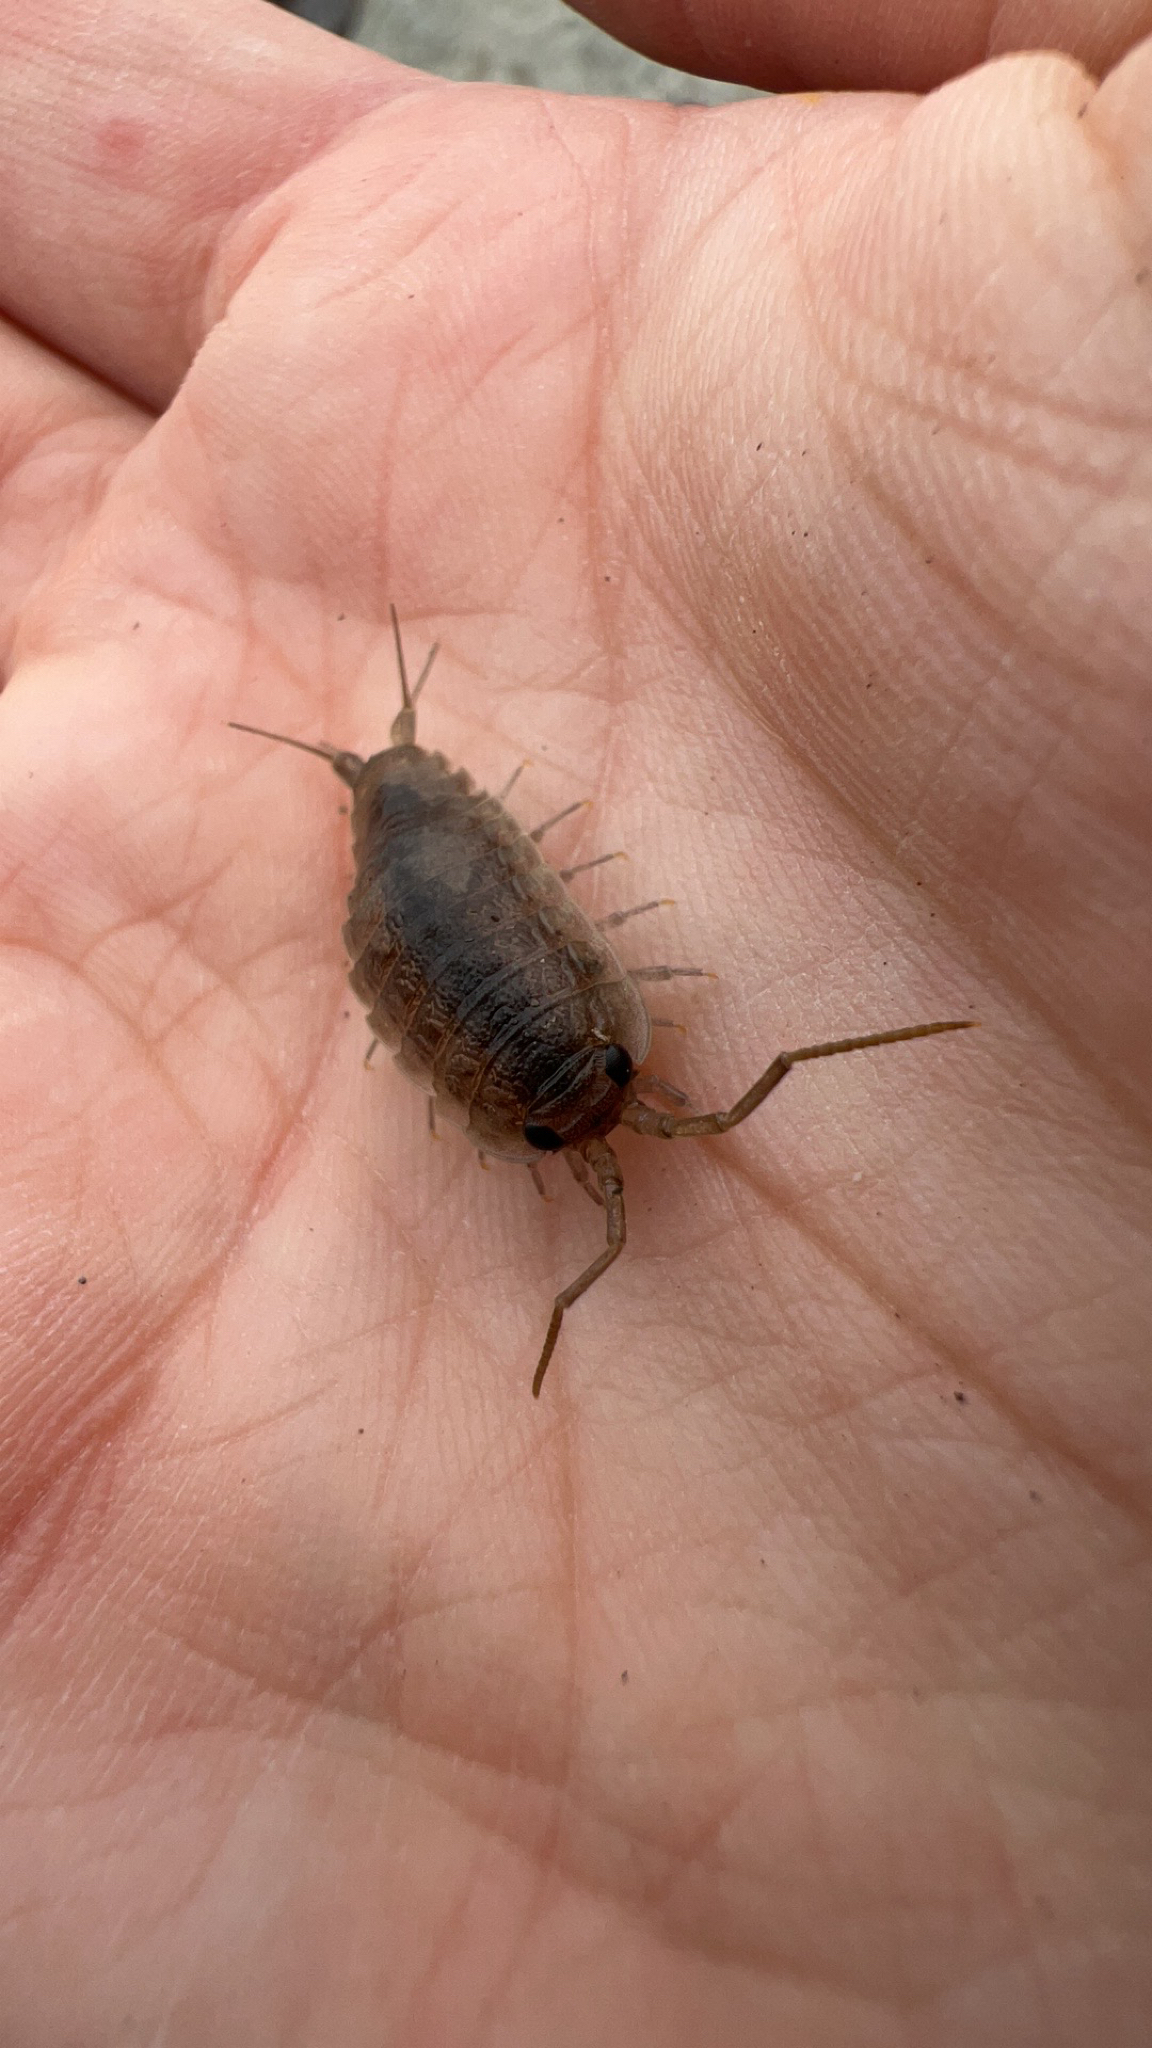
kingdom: Animalia
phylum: Arthropoda
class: Malacostraca
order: Isopoda
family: Ligiidae
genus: Ligia
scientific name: Ligia oceanica
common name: Sea slater
